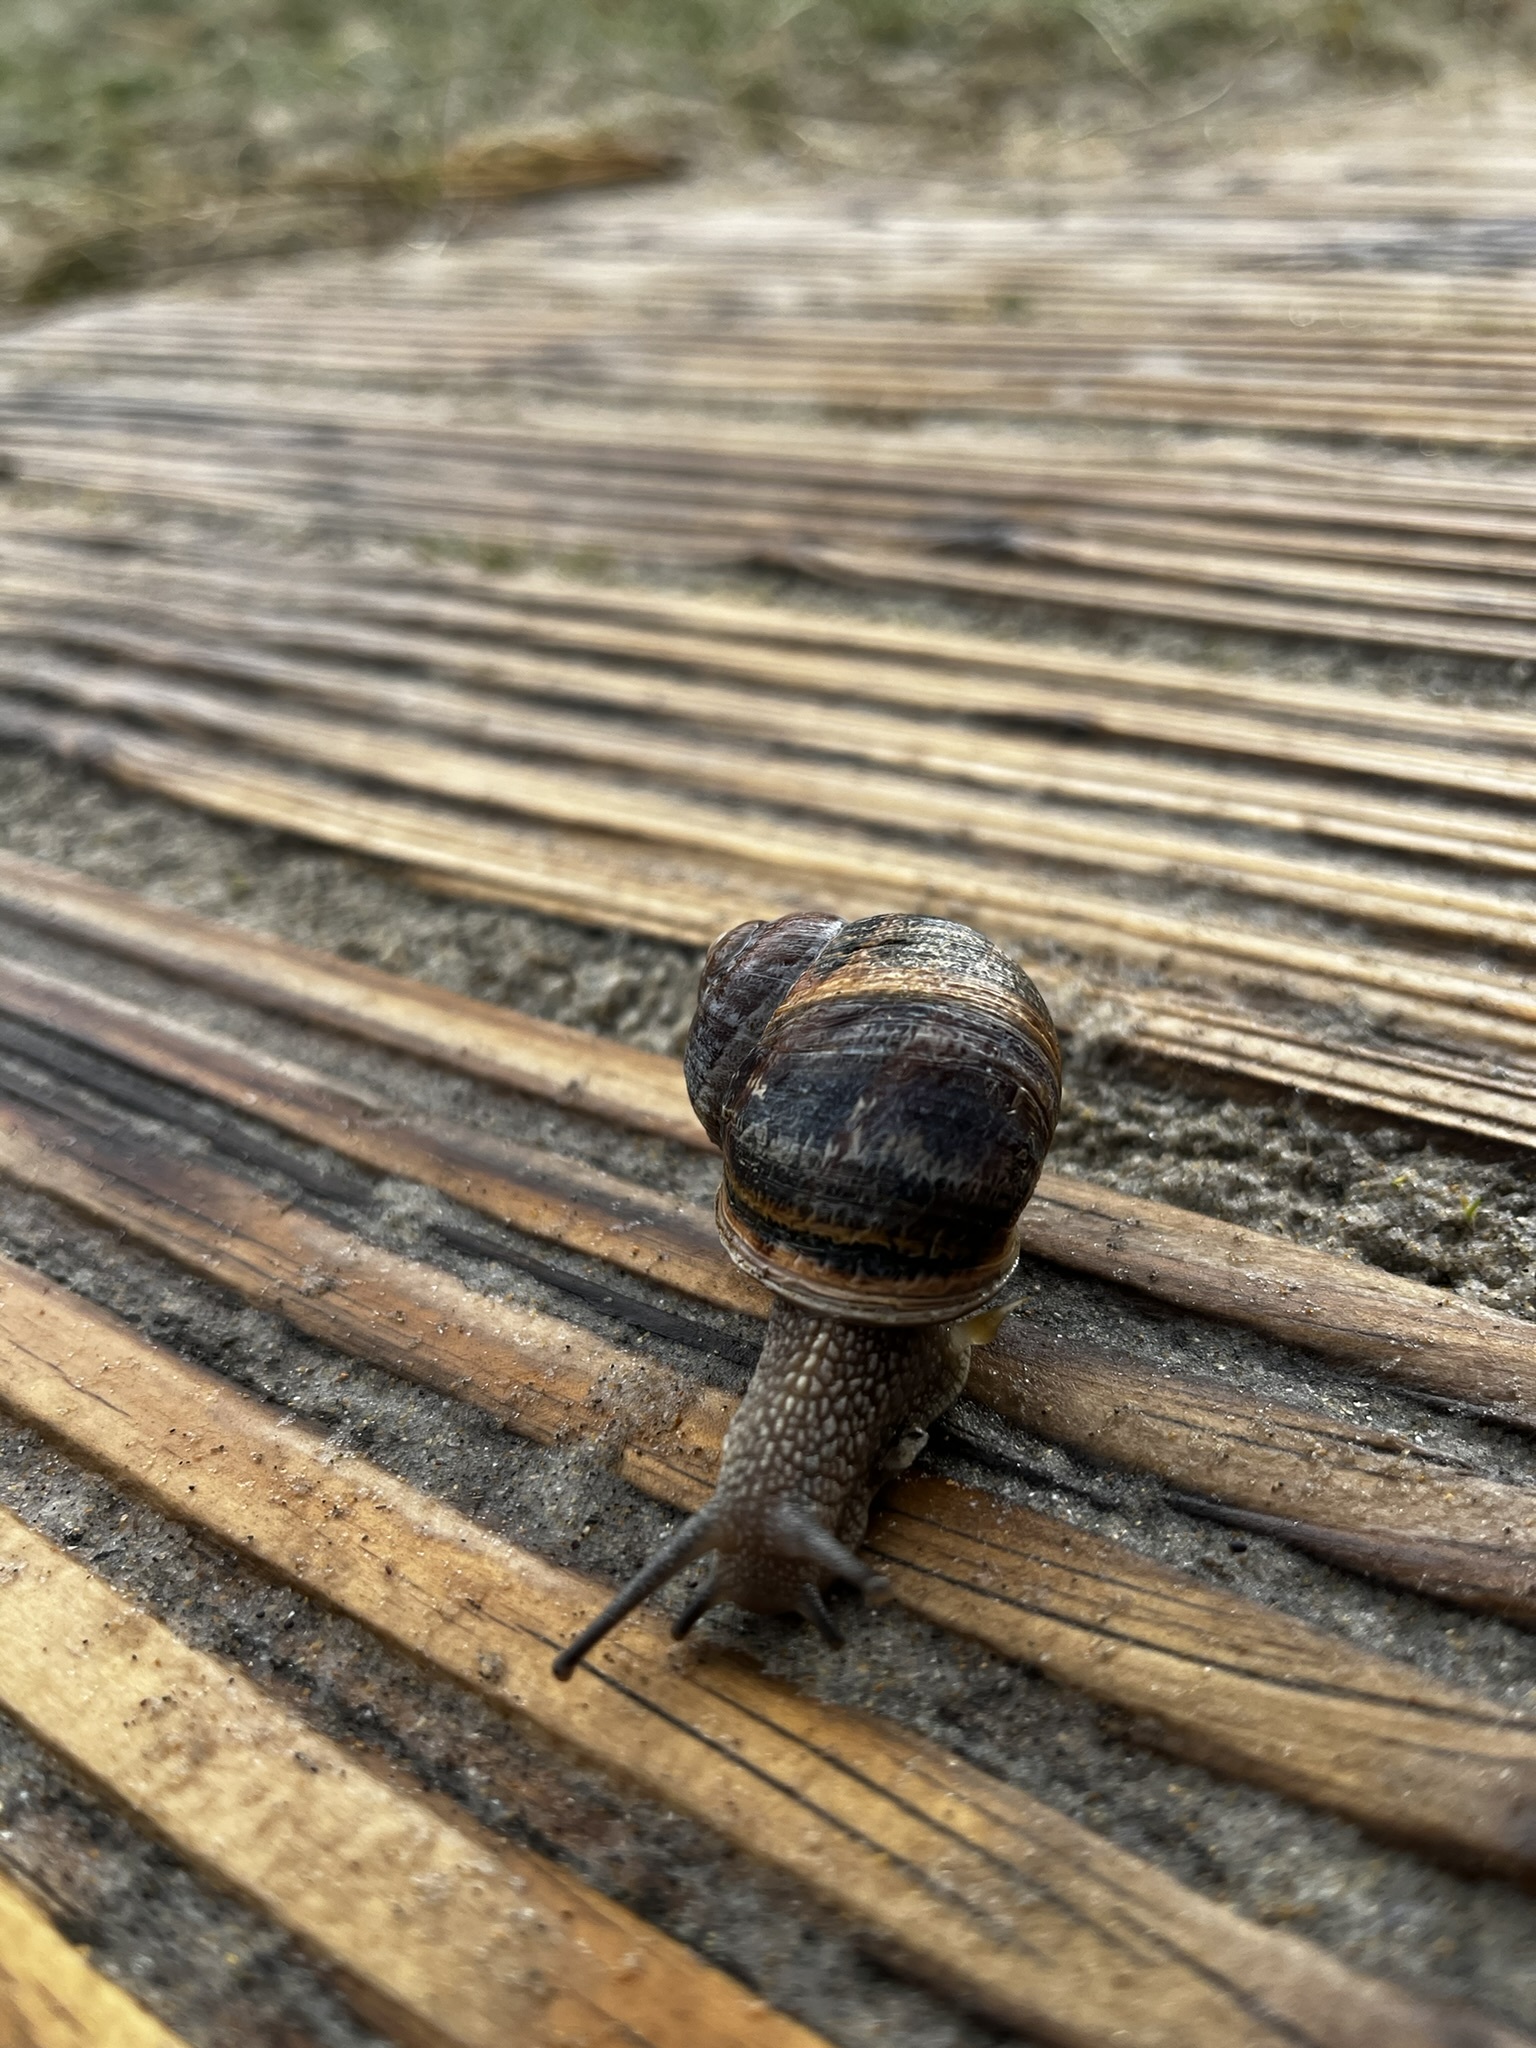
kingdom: Animalia
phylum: Mollusca
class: Gastropoda
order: Stylommatophora
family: Helicidae
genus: Cornu
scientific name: Cornu aspersum
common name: Brown garden snail
